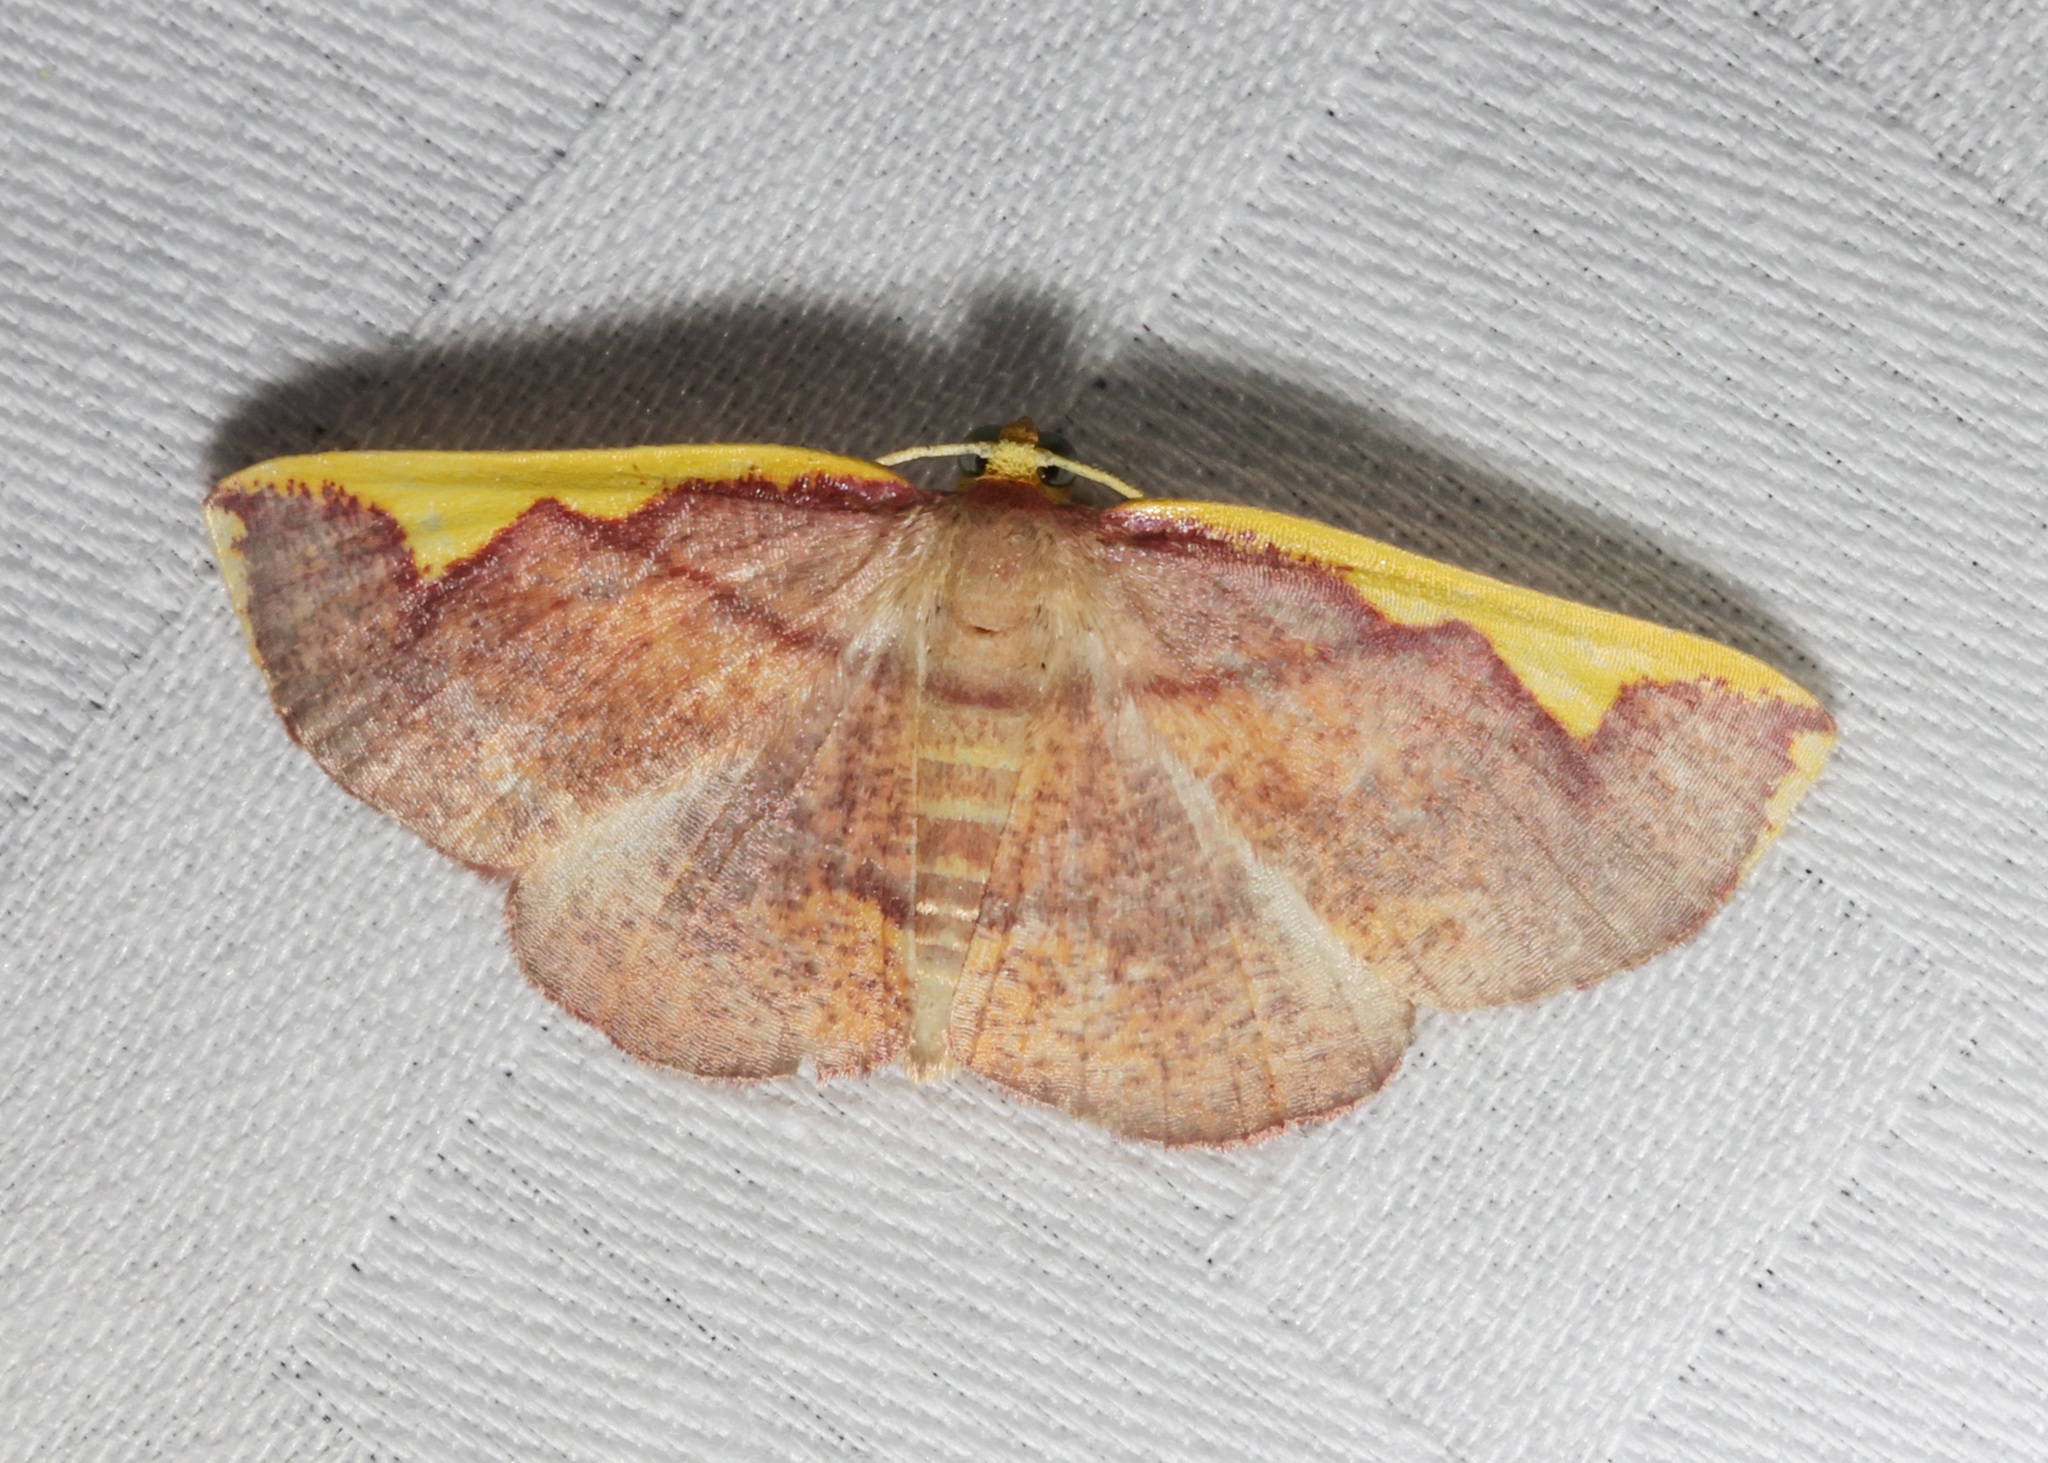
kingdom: Animalia
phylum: Arthropoda
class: Insecta
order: Lepidoptera
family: Geometridae
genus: Nothomiza
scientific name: Nothomiza flavicosta
